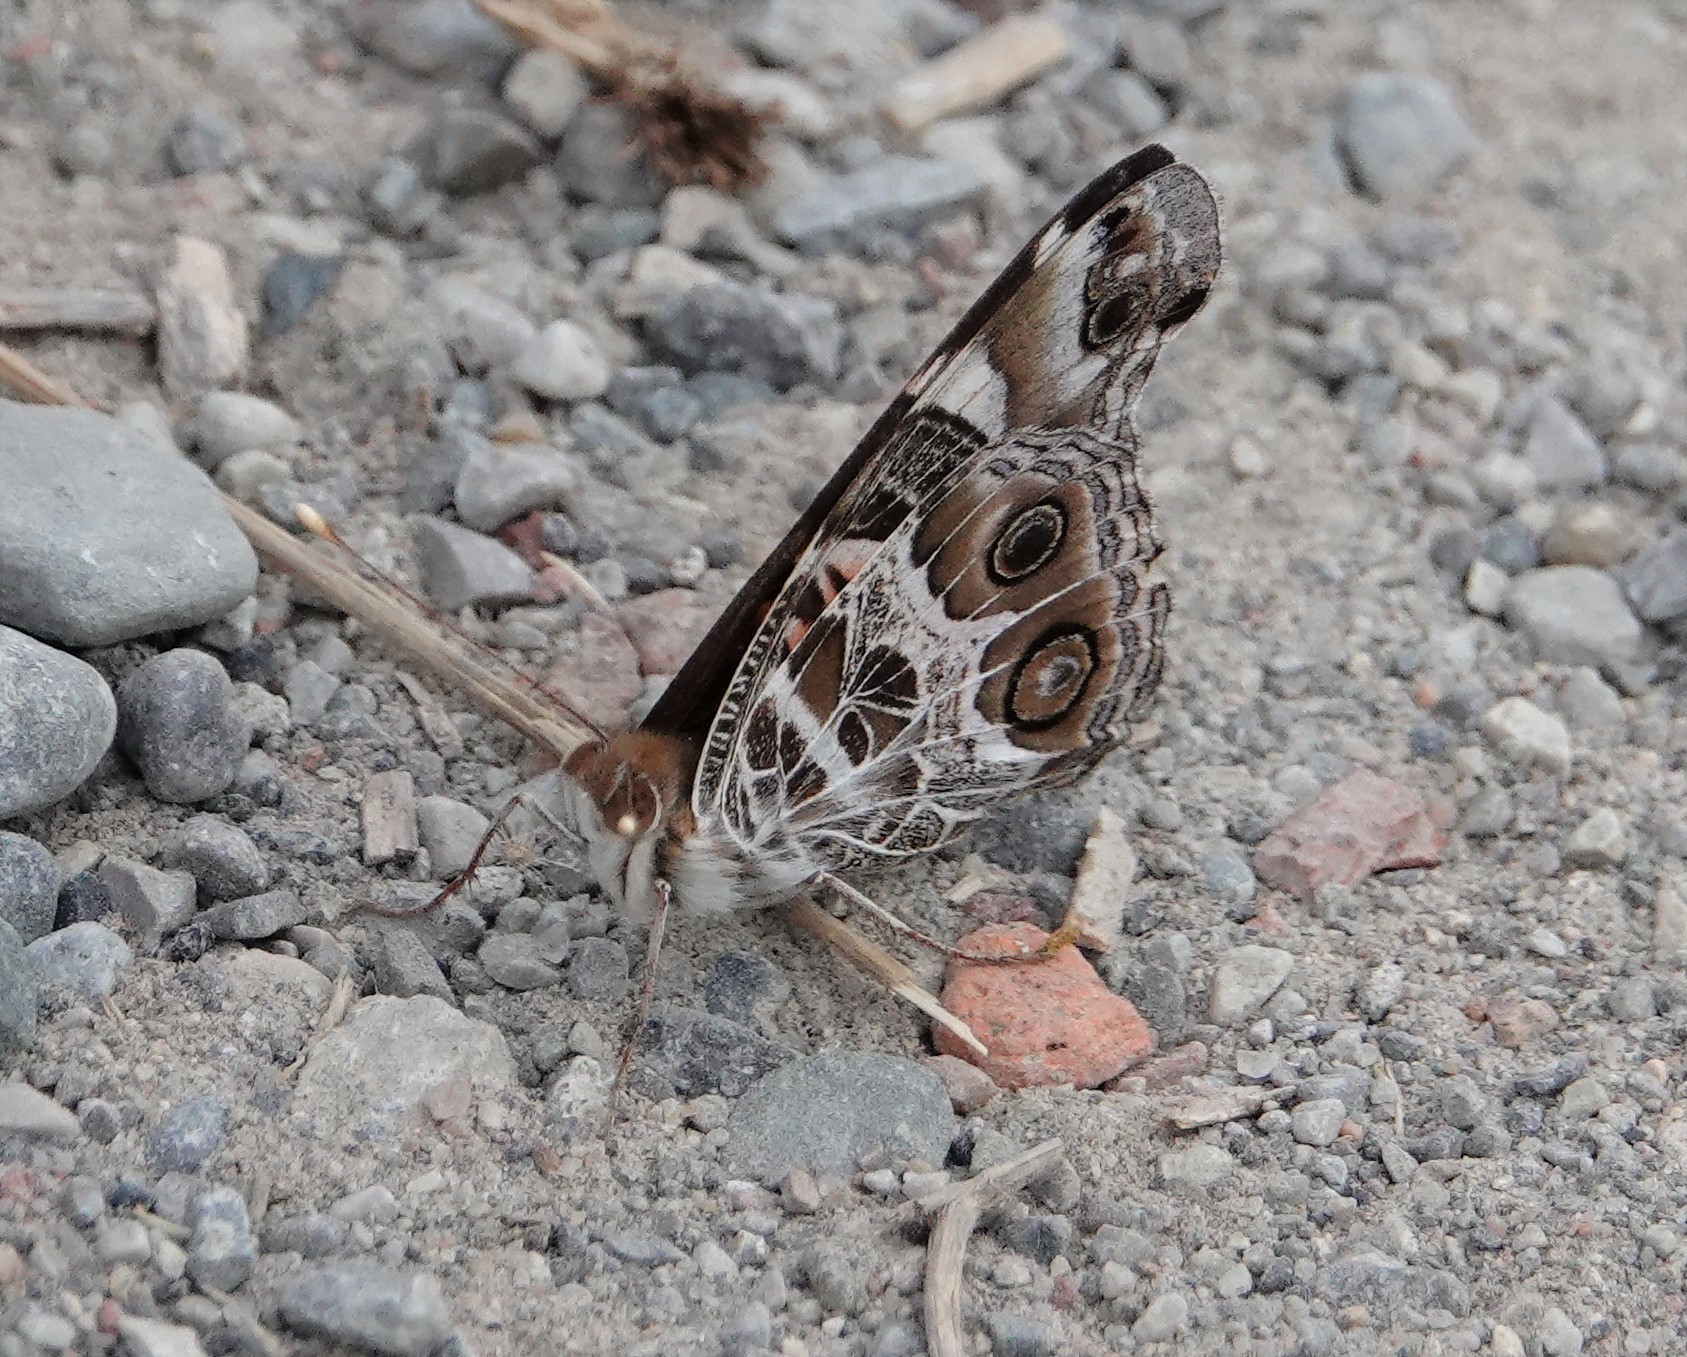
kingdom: Animalia
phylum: Arthropoda
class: Insecta
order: Lepidoptera
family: Nymphalidae
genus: Vanessa
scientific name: Vanessa virginiensis
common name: American lady
